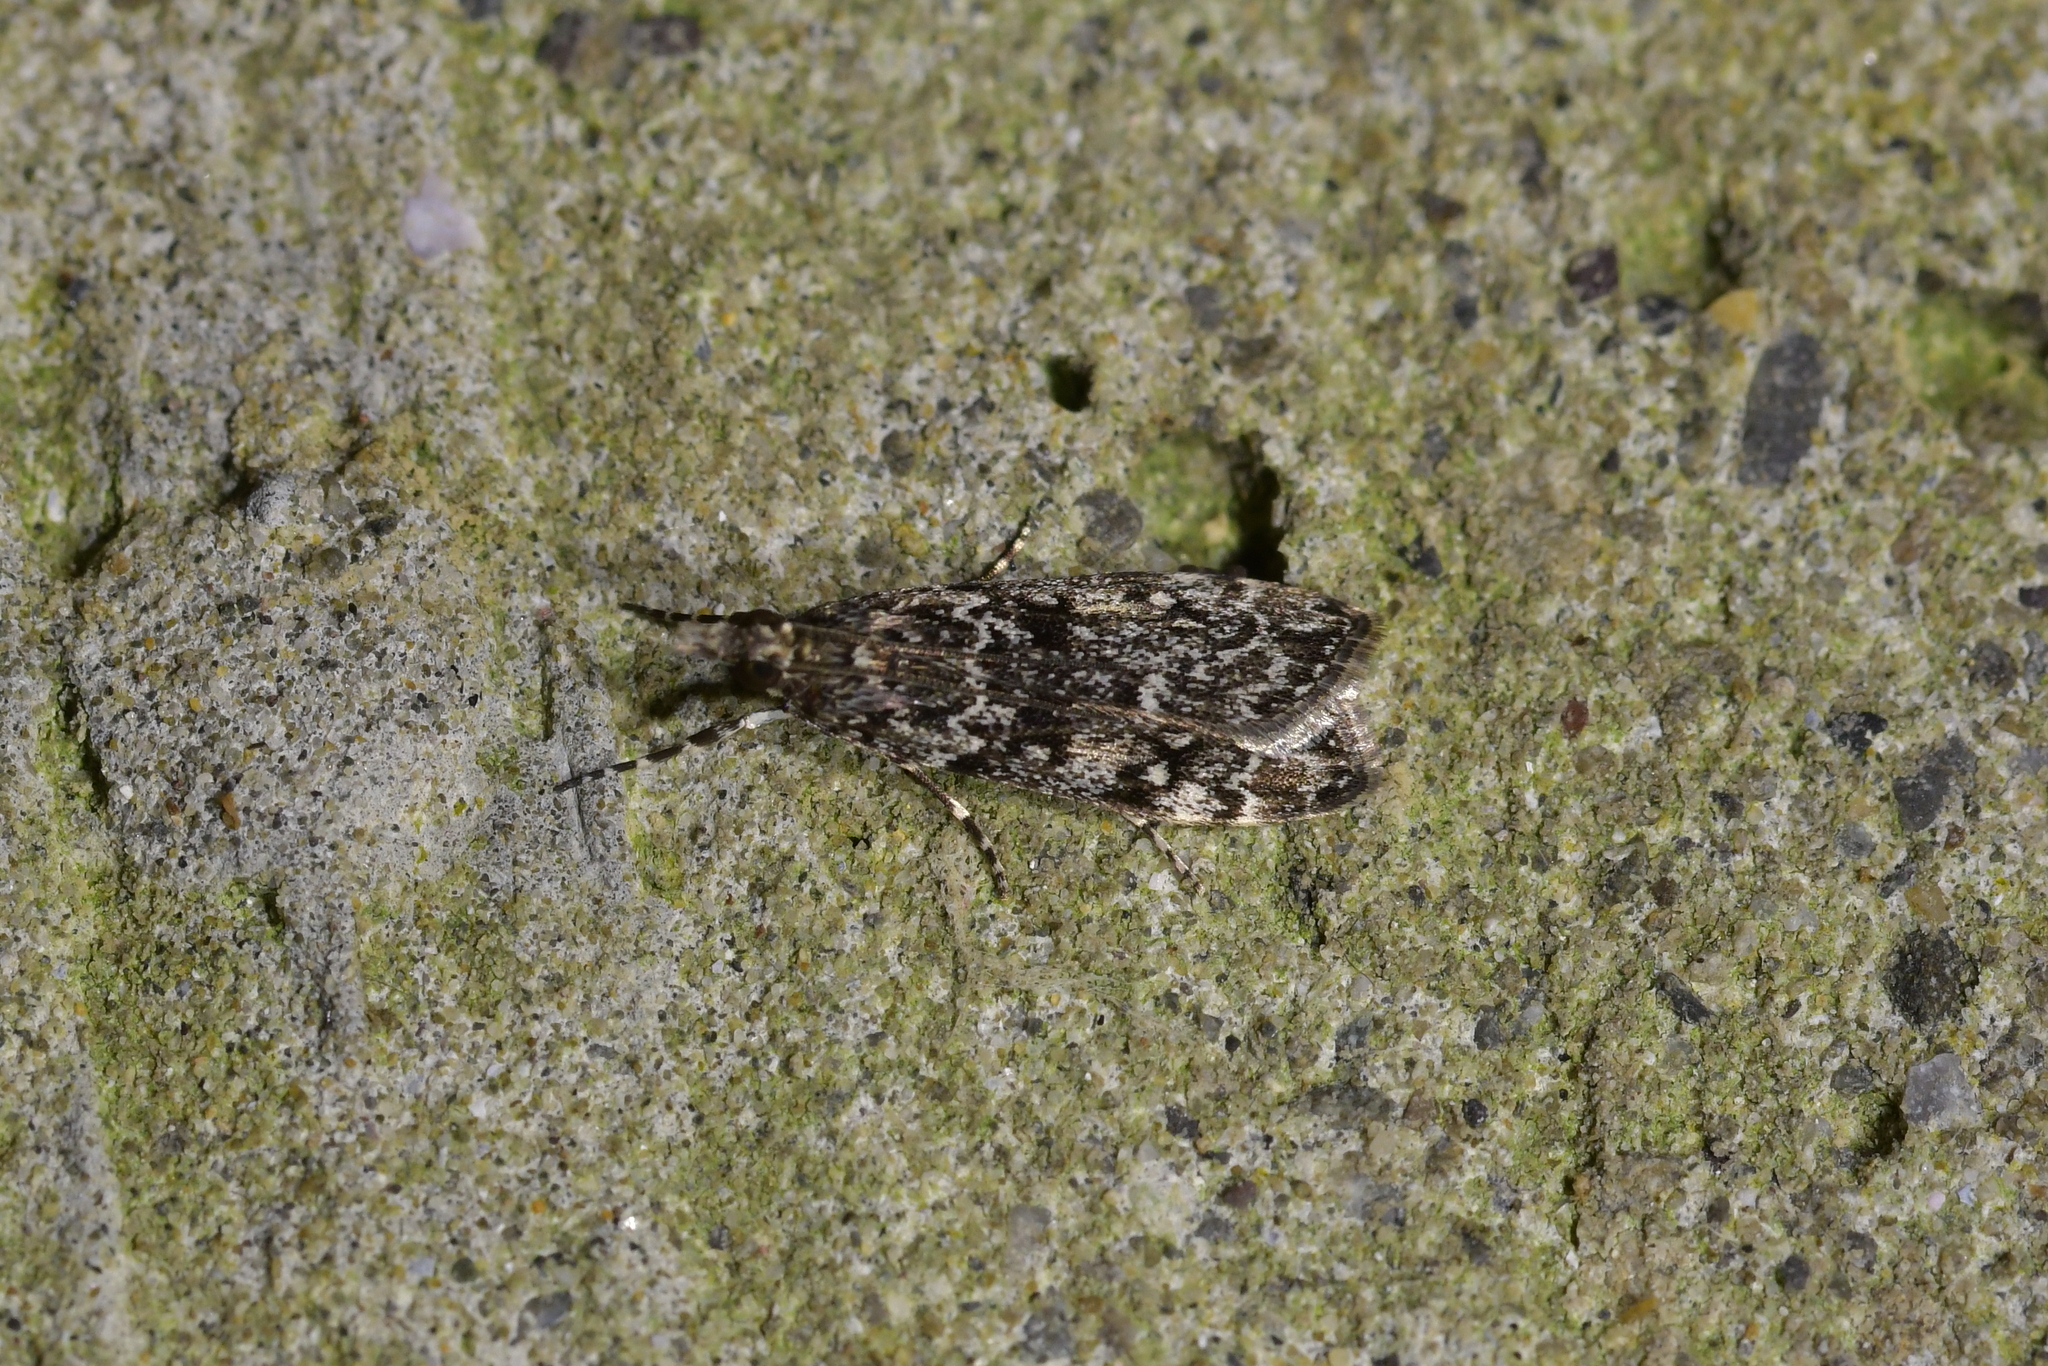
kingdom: Animalia
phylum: Arthropoda
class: Insecta
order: Lepidoptera
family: Crambidae
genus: Eudonia
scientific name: Eudonia philerga
